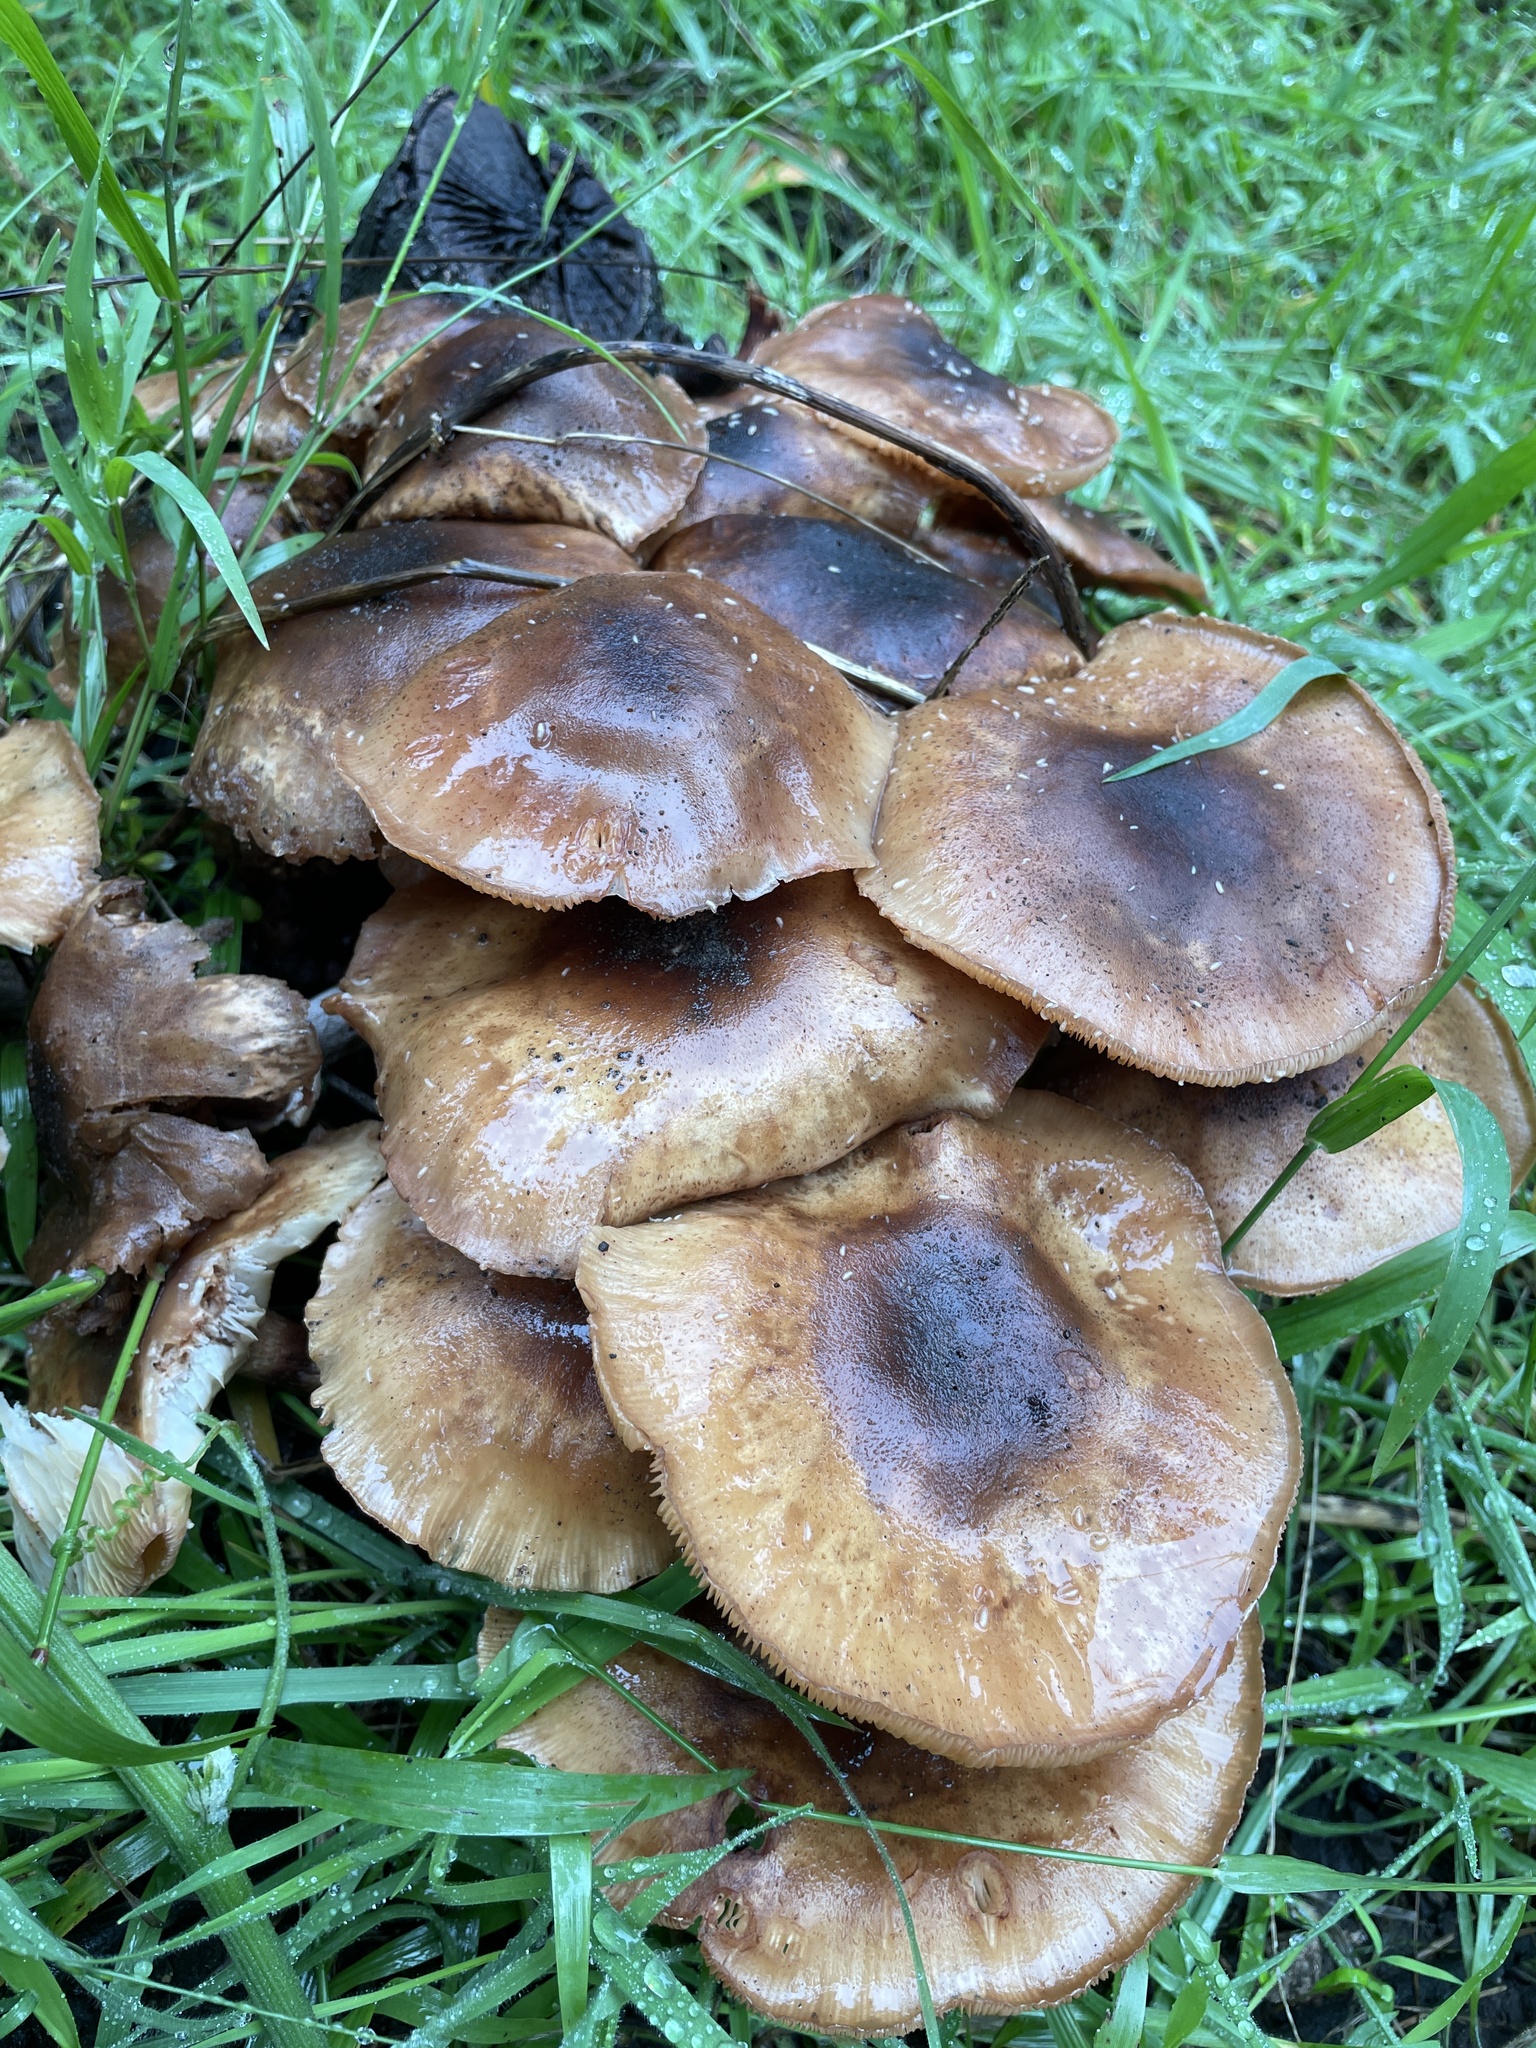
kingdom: Fungi
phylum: Basidiomycota
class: Agaricomycetes
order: Agaricales
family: Physalacriaceae
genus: Armillaria
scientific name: Armillaria mellea
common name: Honey fungus
